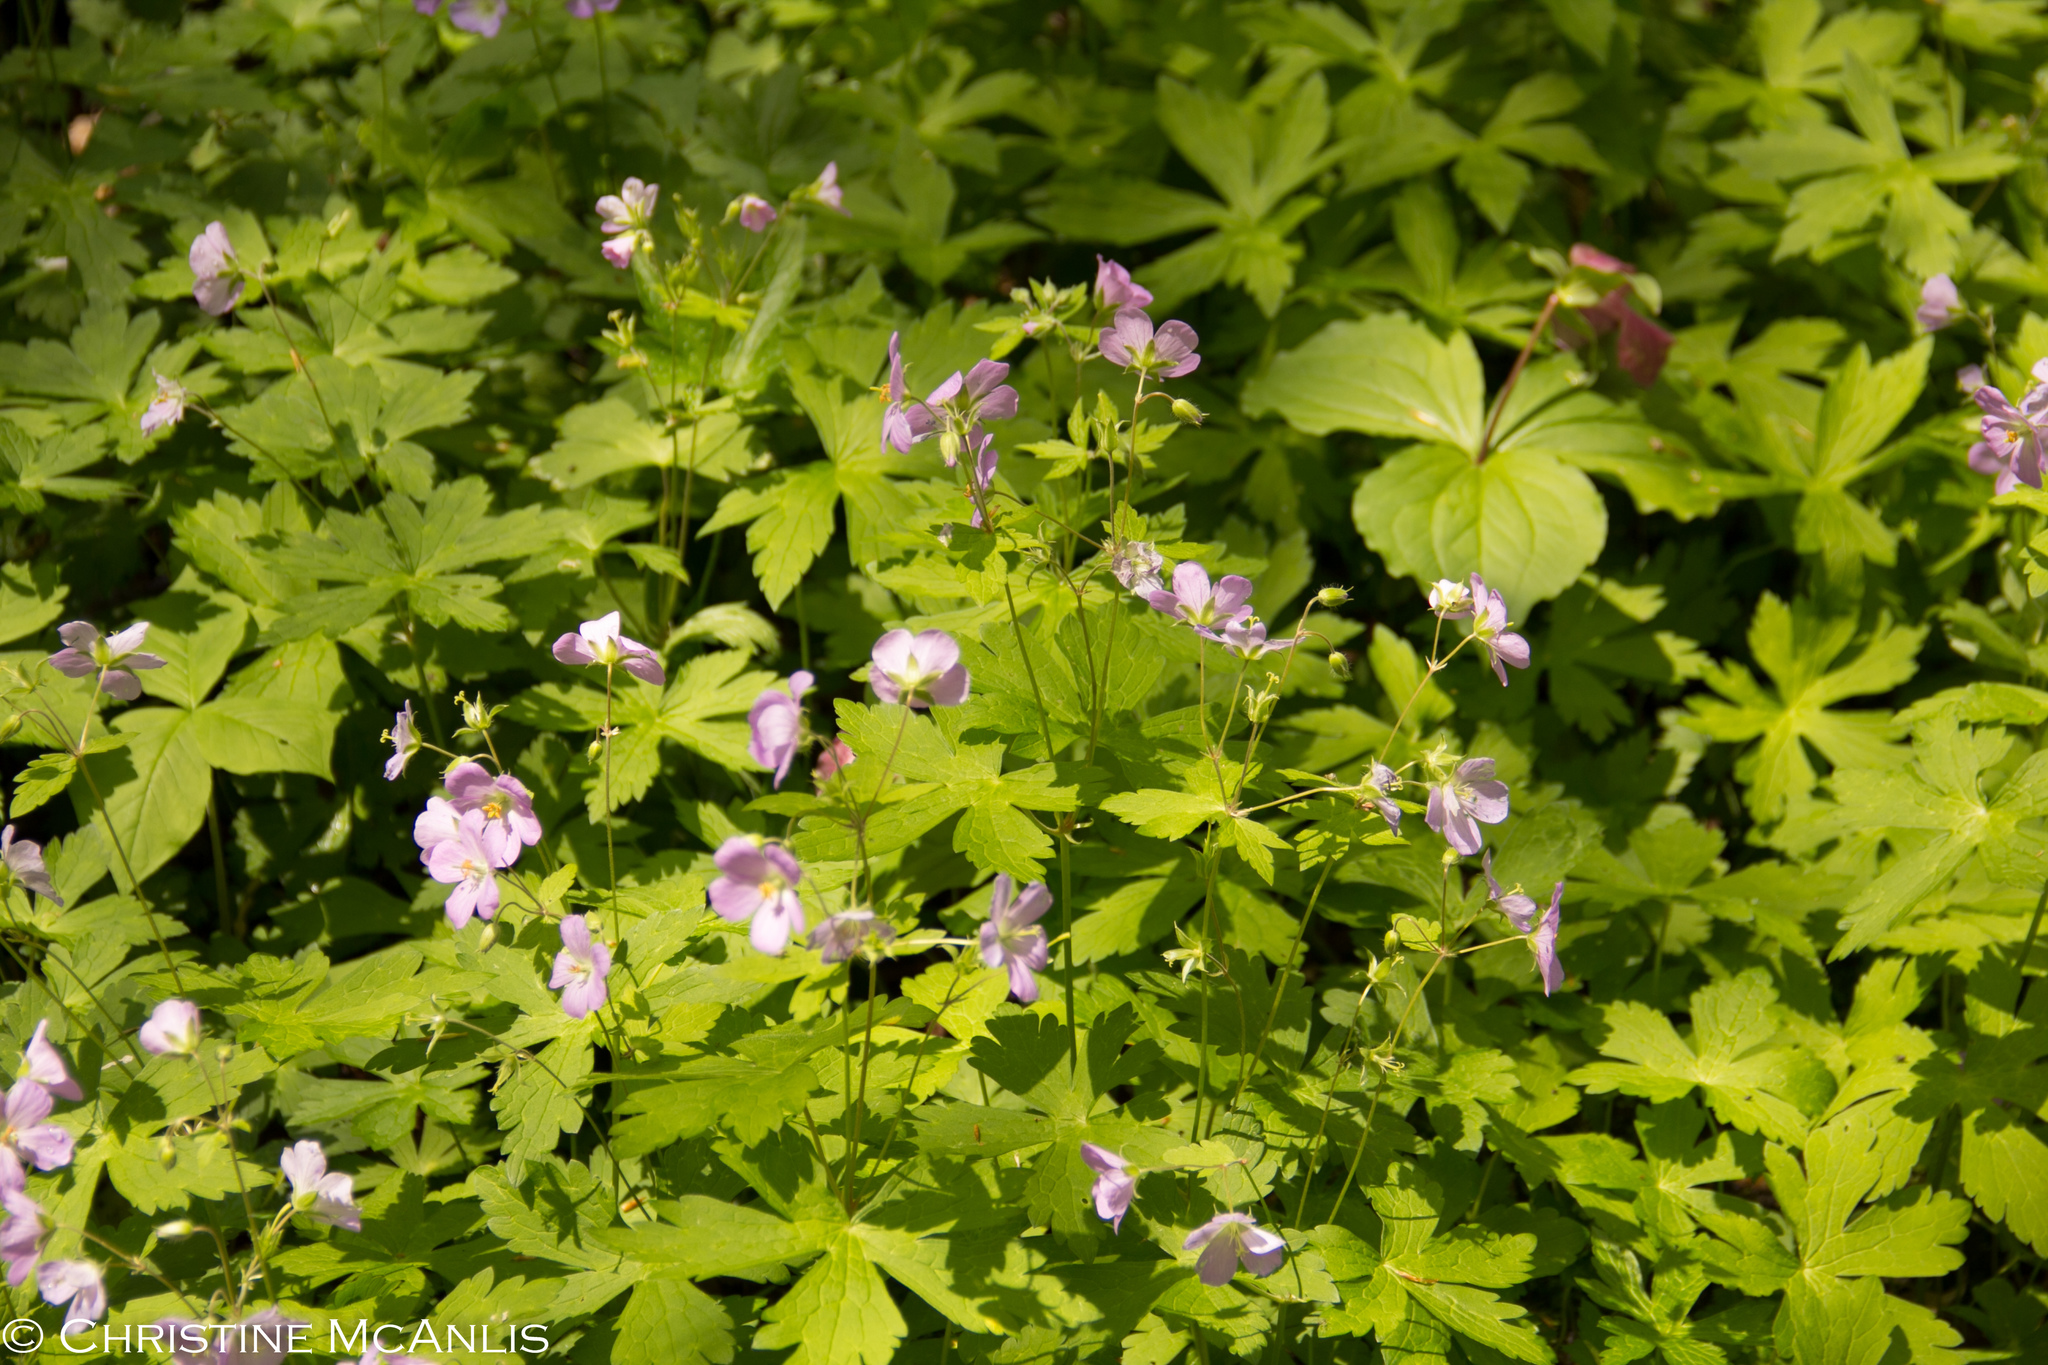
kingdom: Plantae
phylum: Tracheophyta
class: Magnoliopsida
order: Geraniales
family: Geraniaceae
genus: Geranium
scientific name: Geranium maculatum
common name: Spotted geranium
